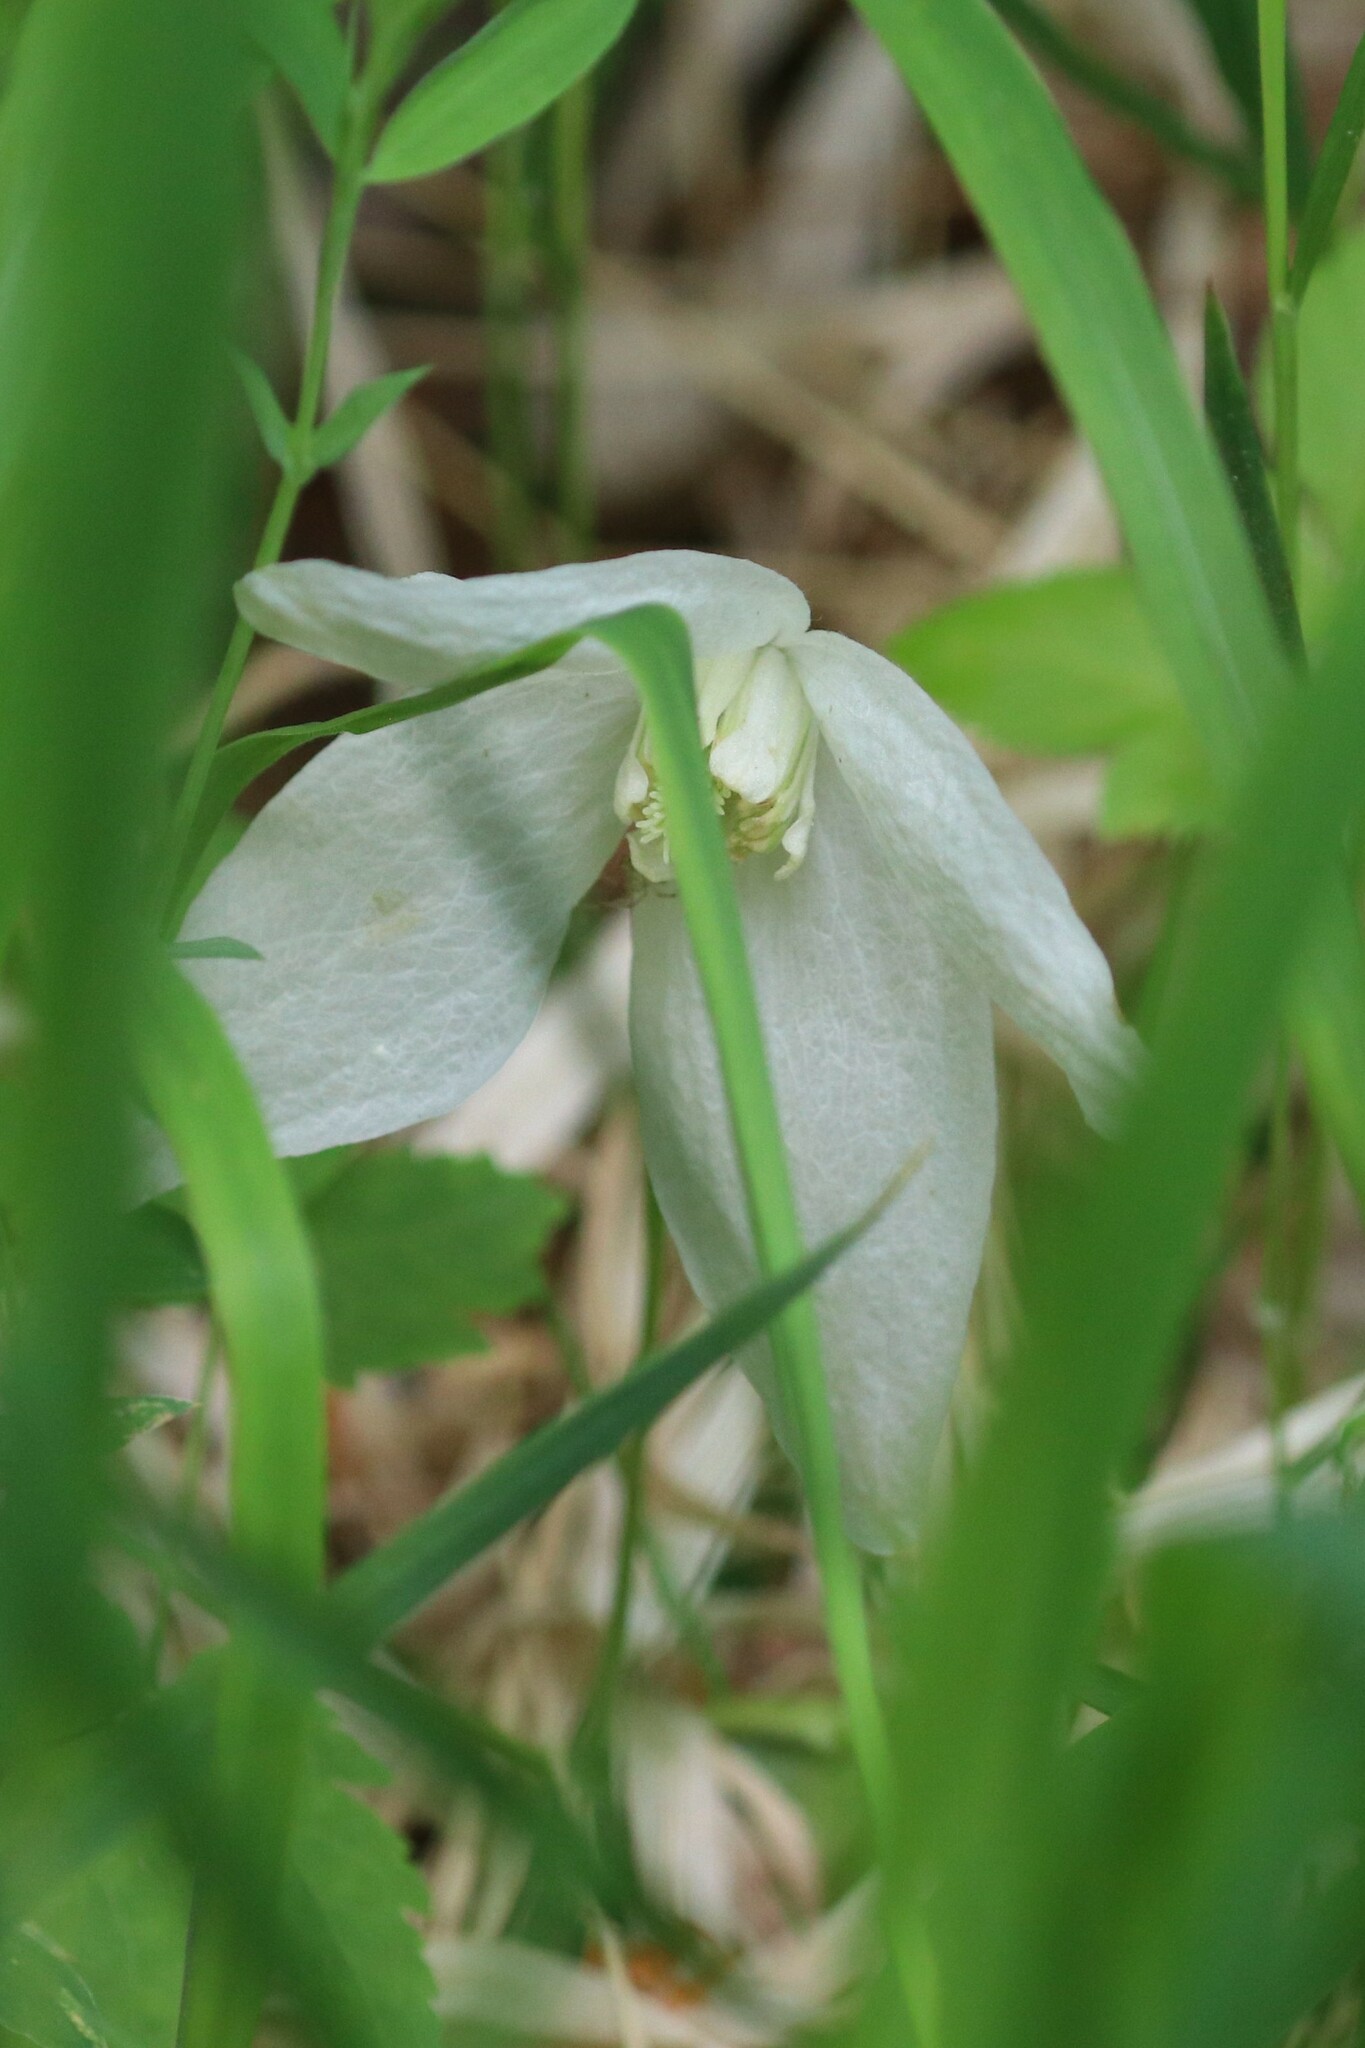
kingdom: Plantae
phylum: Tracheophyta
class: Magnoliopsida
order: Ranunculales
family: Ranunculaceae
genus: Clematis
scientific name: Clematis sibirica
